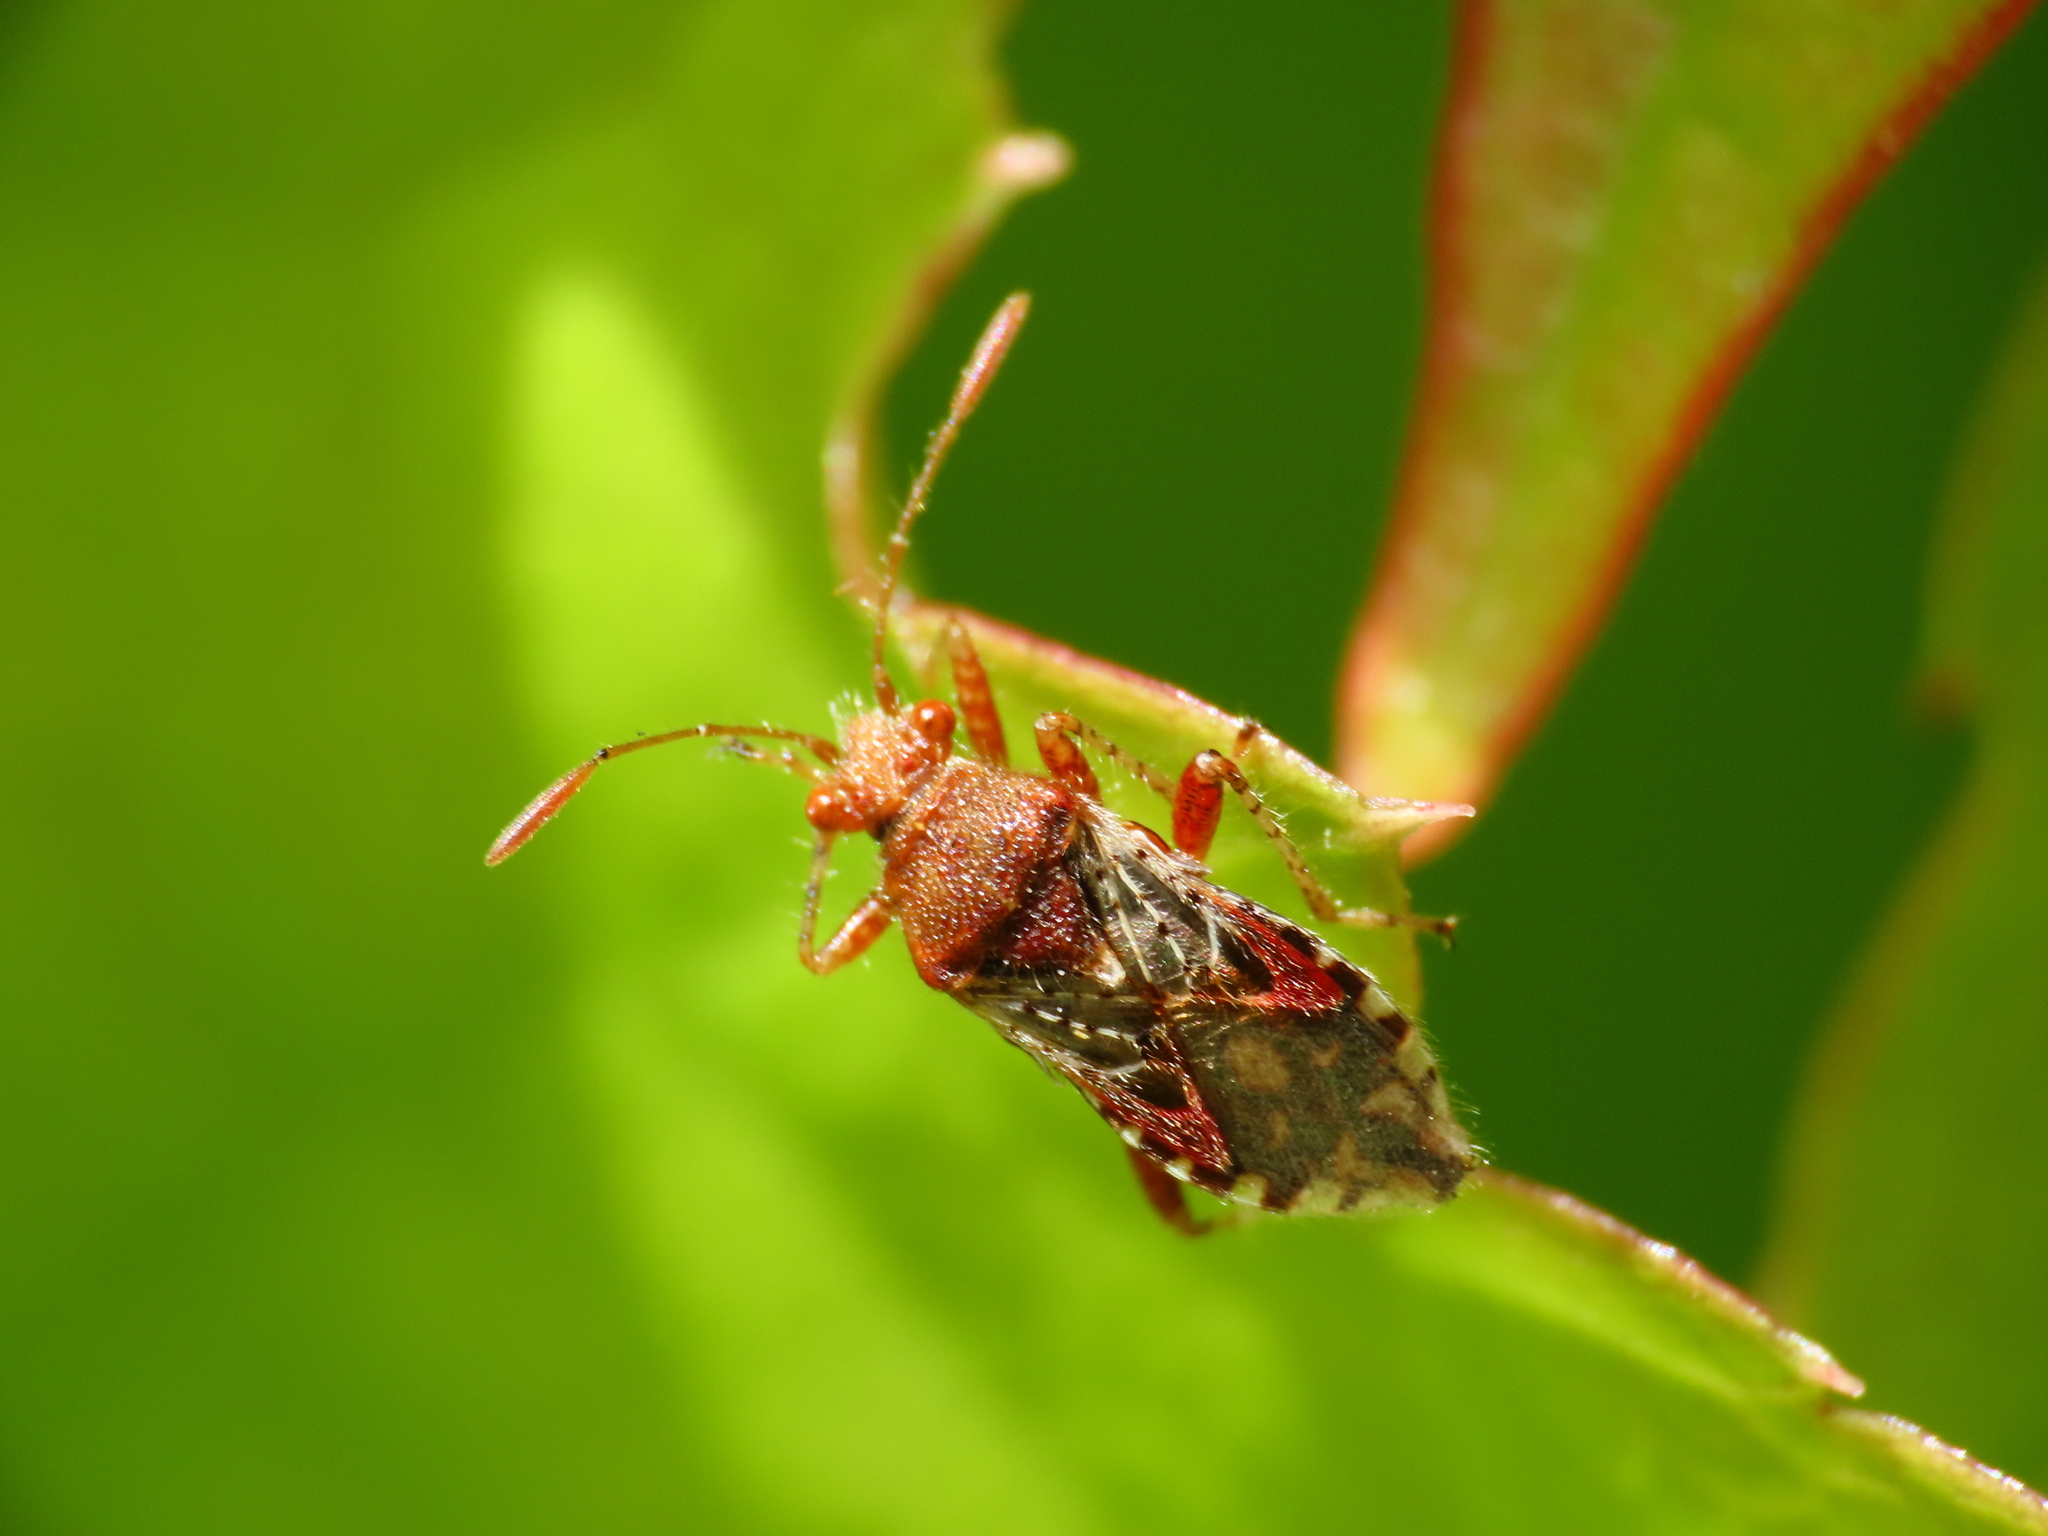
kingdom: Animalia
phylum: Arthropoda
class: Insecta
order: Hemiptera
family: Rhopalidae
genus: Rhopalus
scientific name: Rhopalus subrufus
